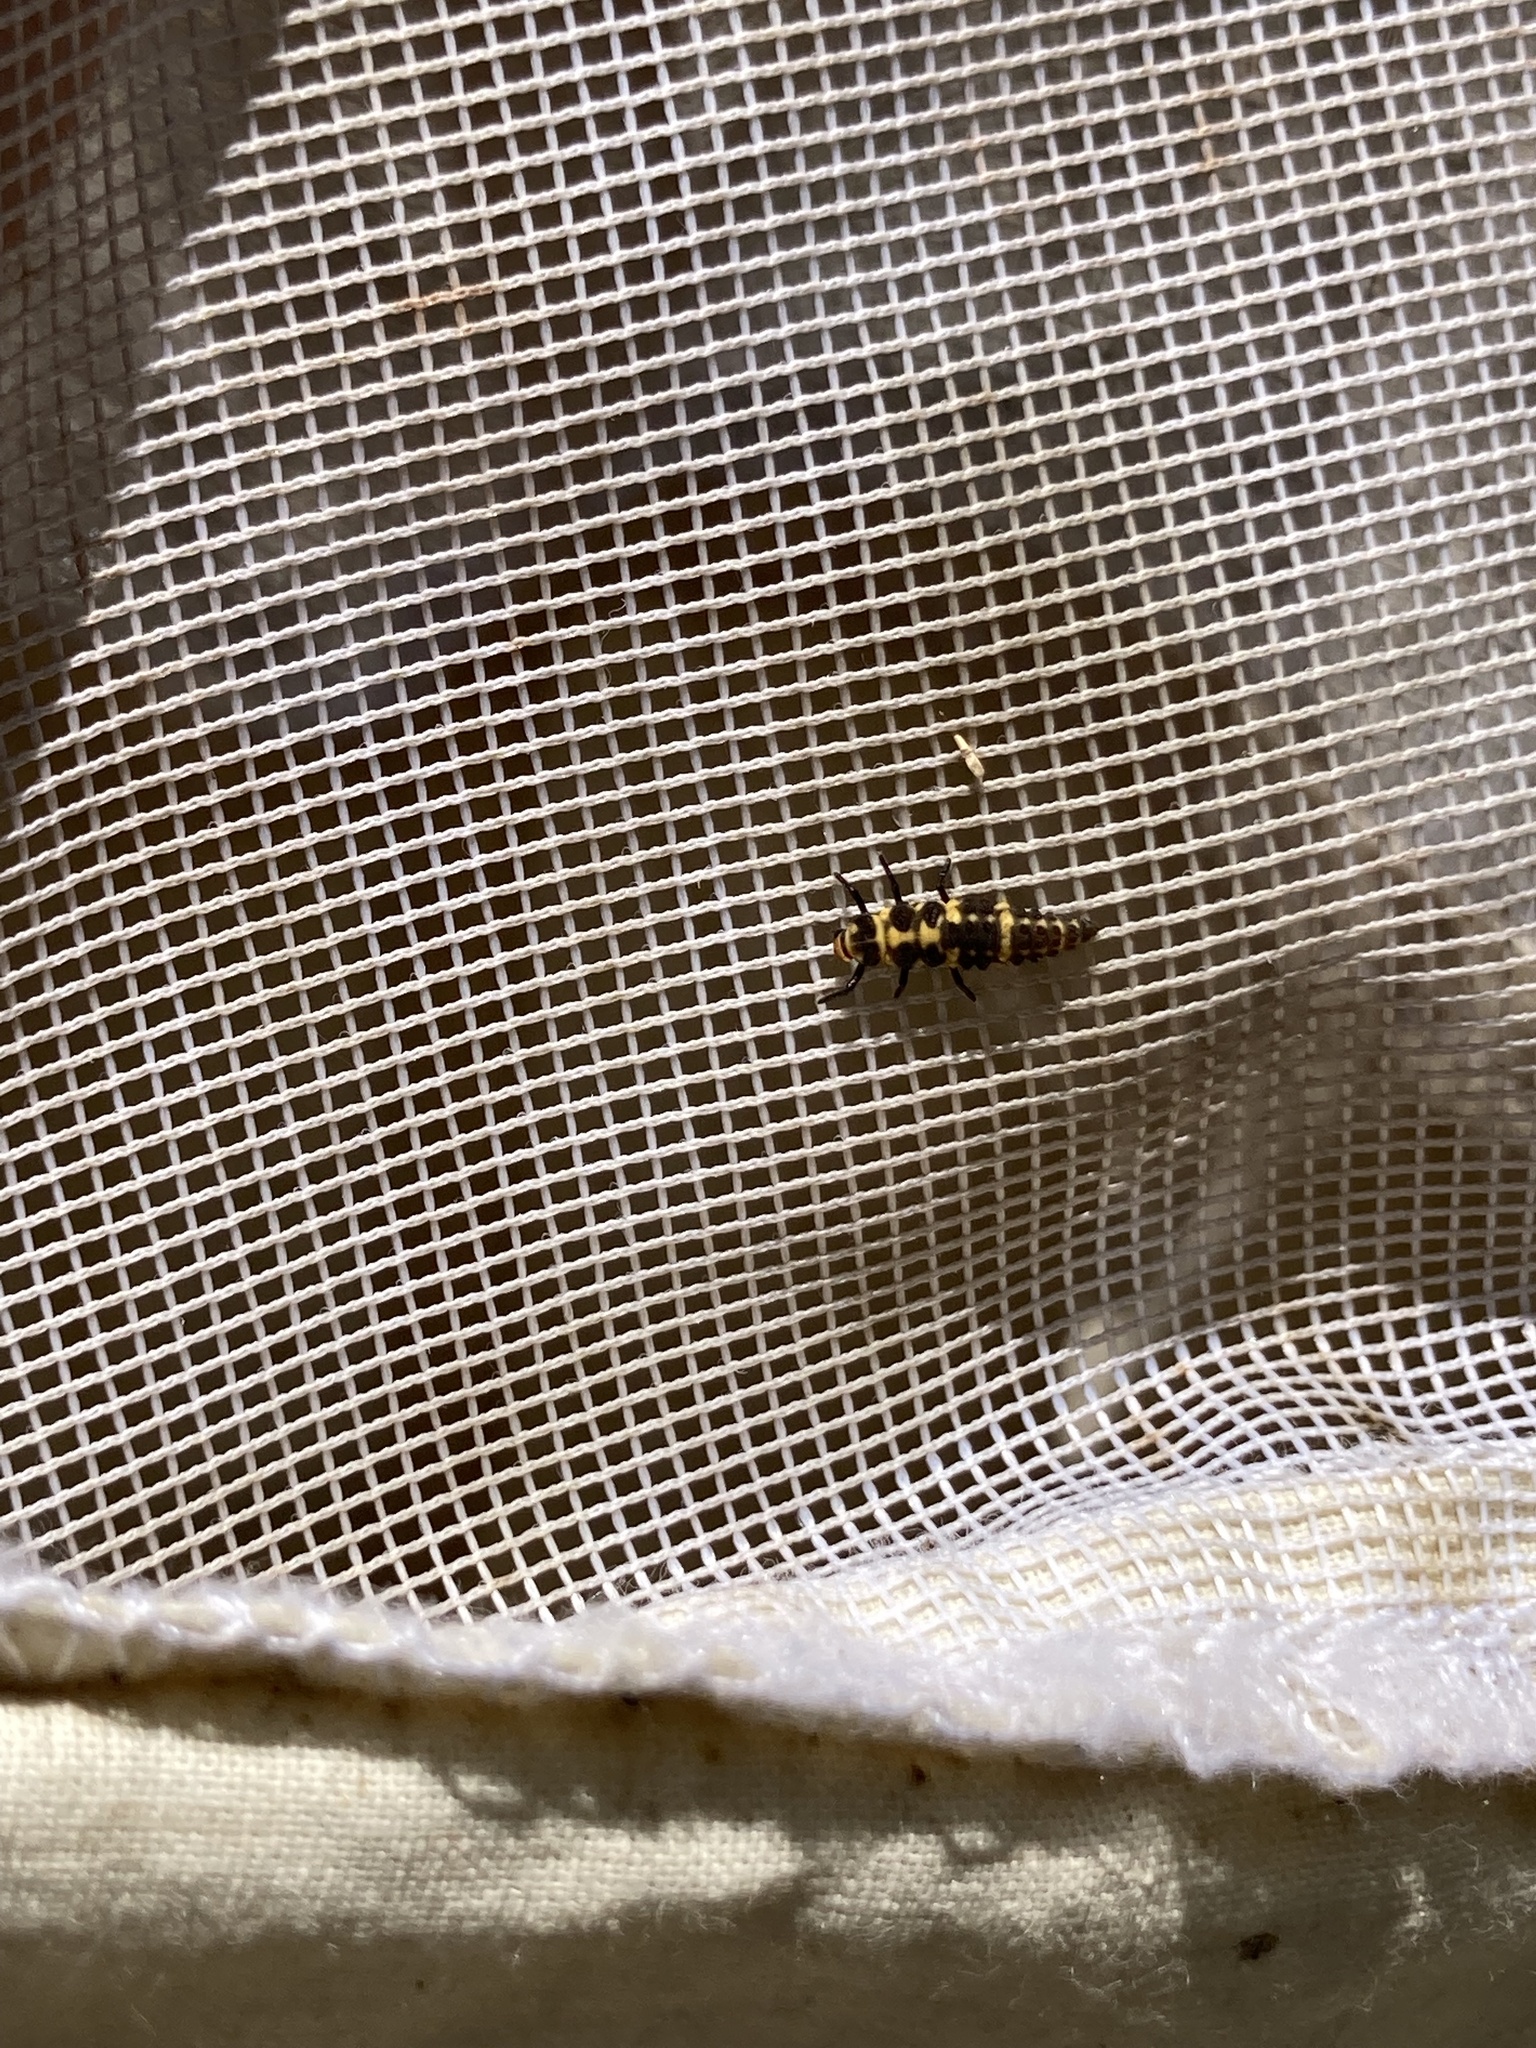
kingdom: Animalia
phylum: Arthropoda
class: Insecta
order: Coleoptera
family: Coccinellidae
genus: Coleomegilla
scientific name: Coleomegilla maculata
